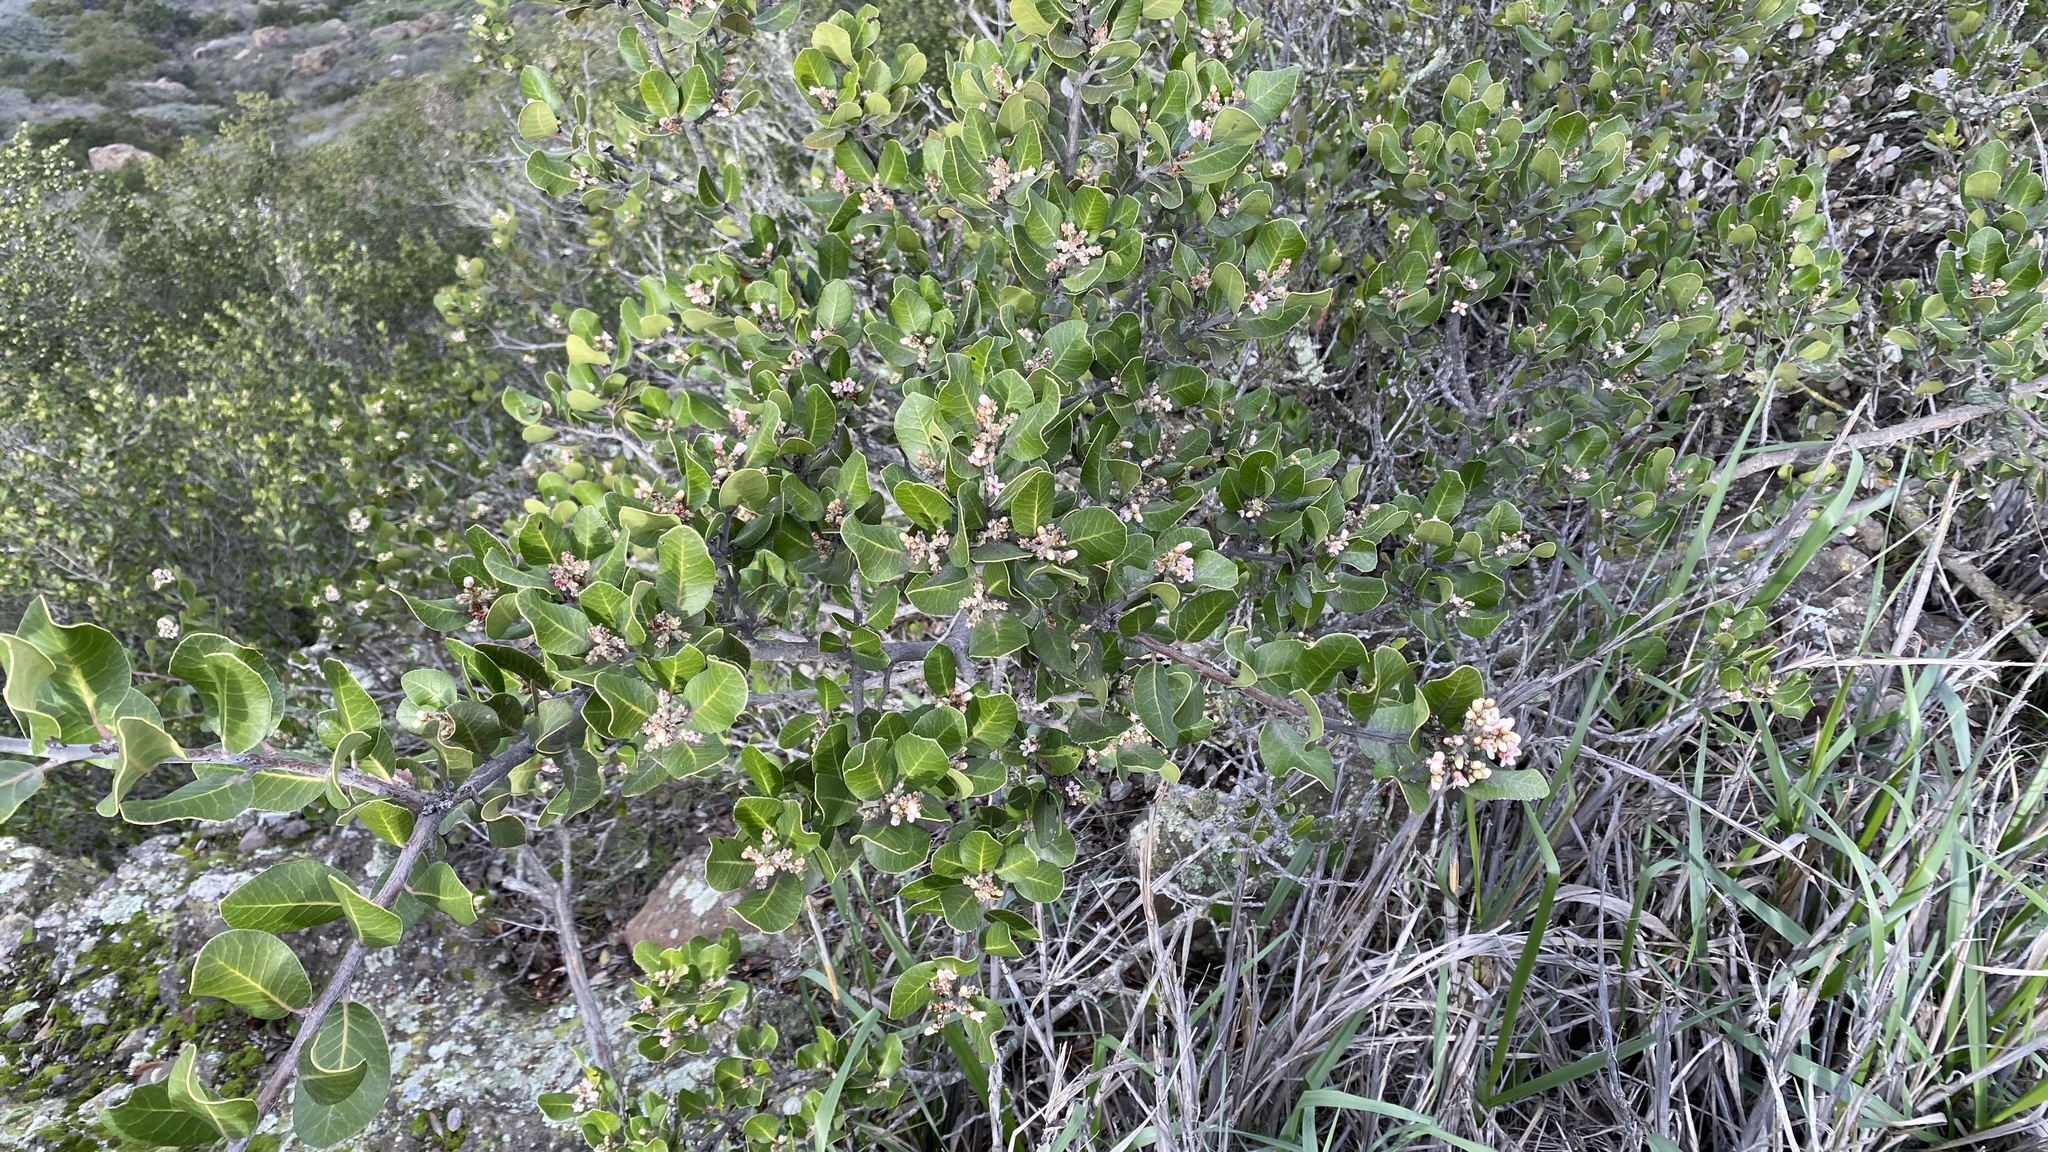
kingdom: Plantae
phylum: Tracheophyta
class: Magnoliopsida
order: Sapindales
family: Anacardiaceae
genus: Rhus
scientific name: Rhus integrifolia
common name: Lemonade sumac
